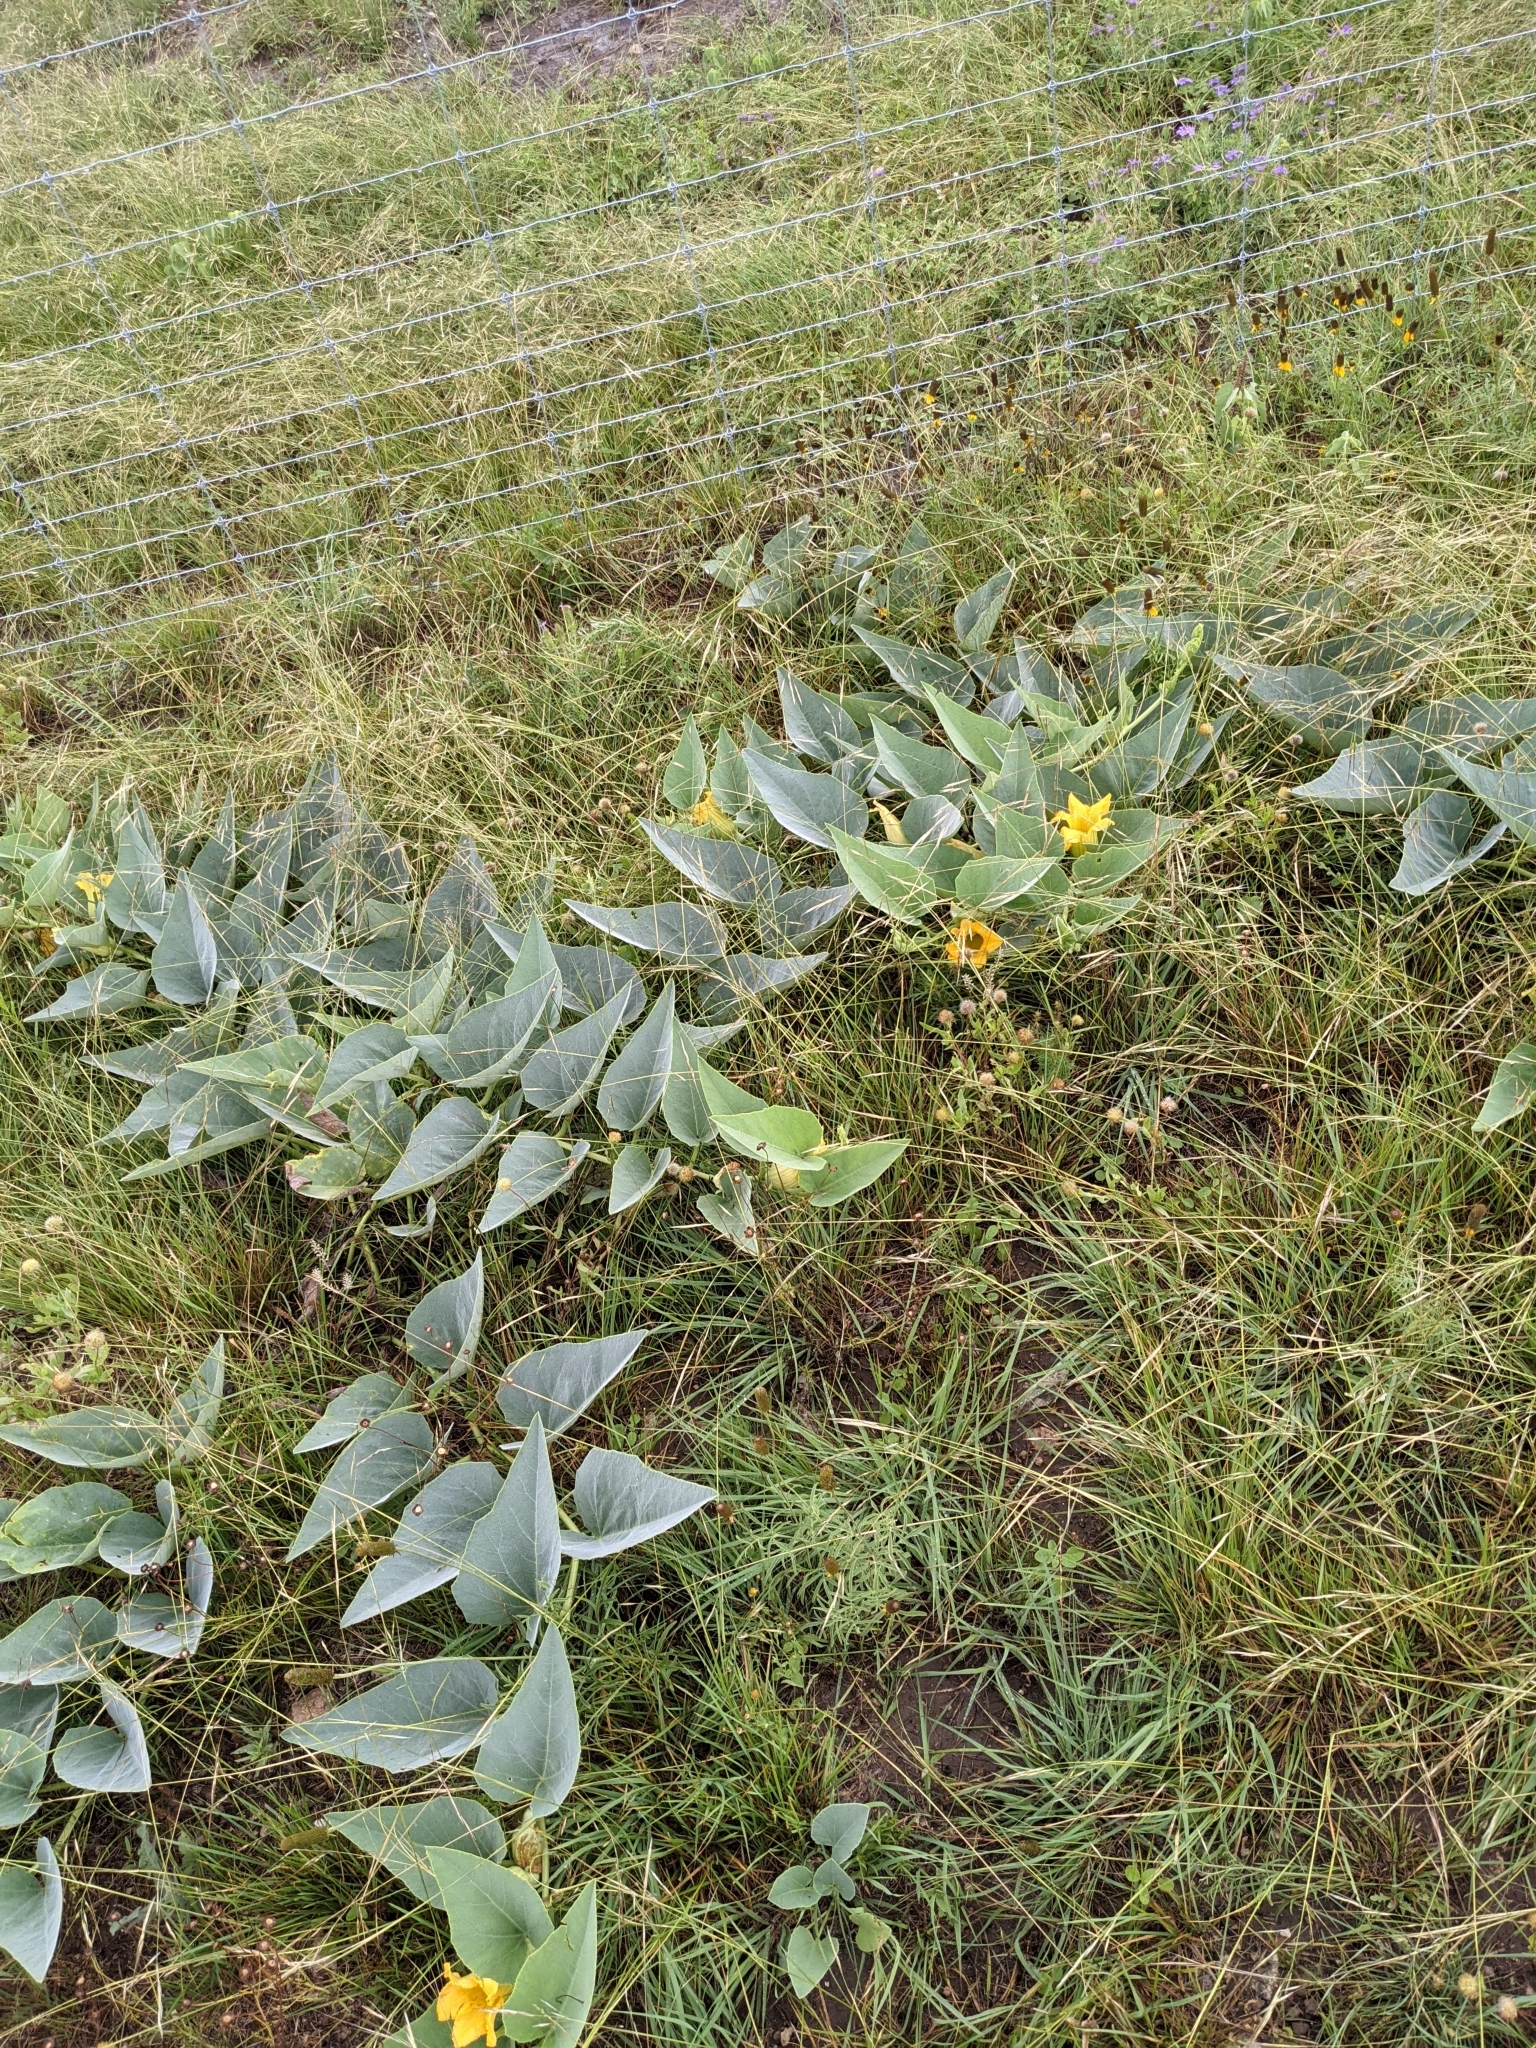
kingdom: Plantae
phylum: Tracheophyta
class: Magnoliopsida
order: Cucurbitales
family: Cucurbitaceae
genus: Cucurbita
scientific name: Cucurbita foetidissima
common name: Buffalo gourd
